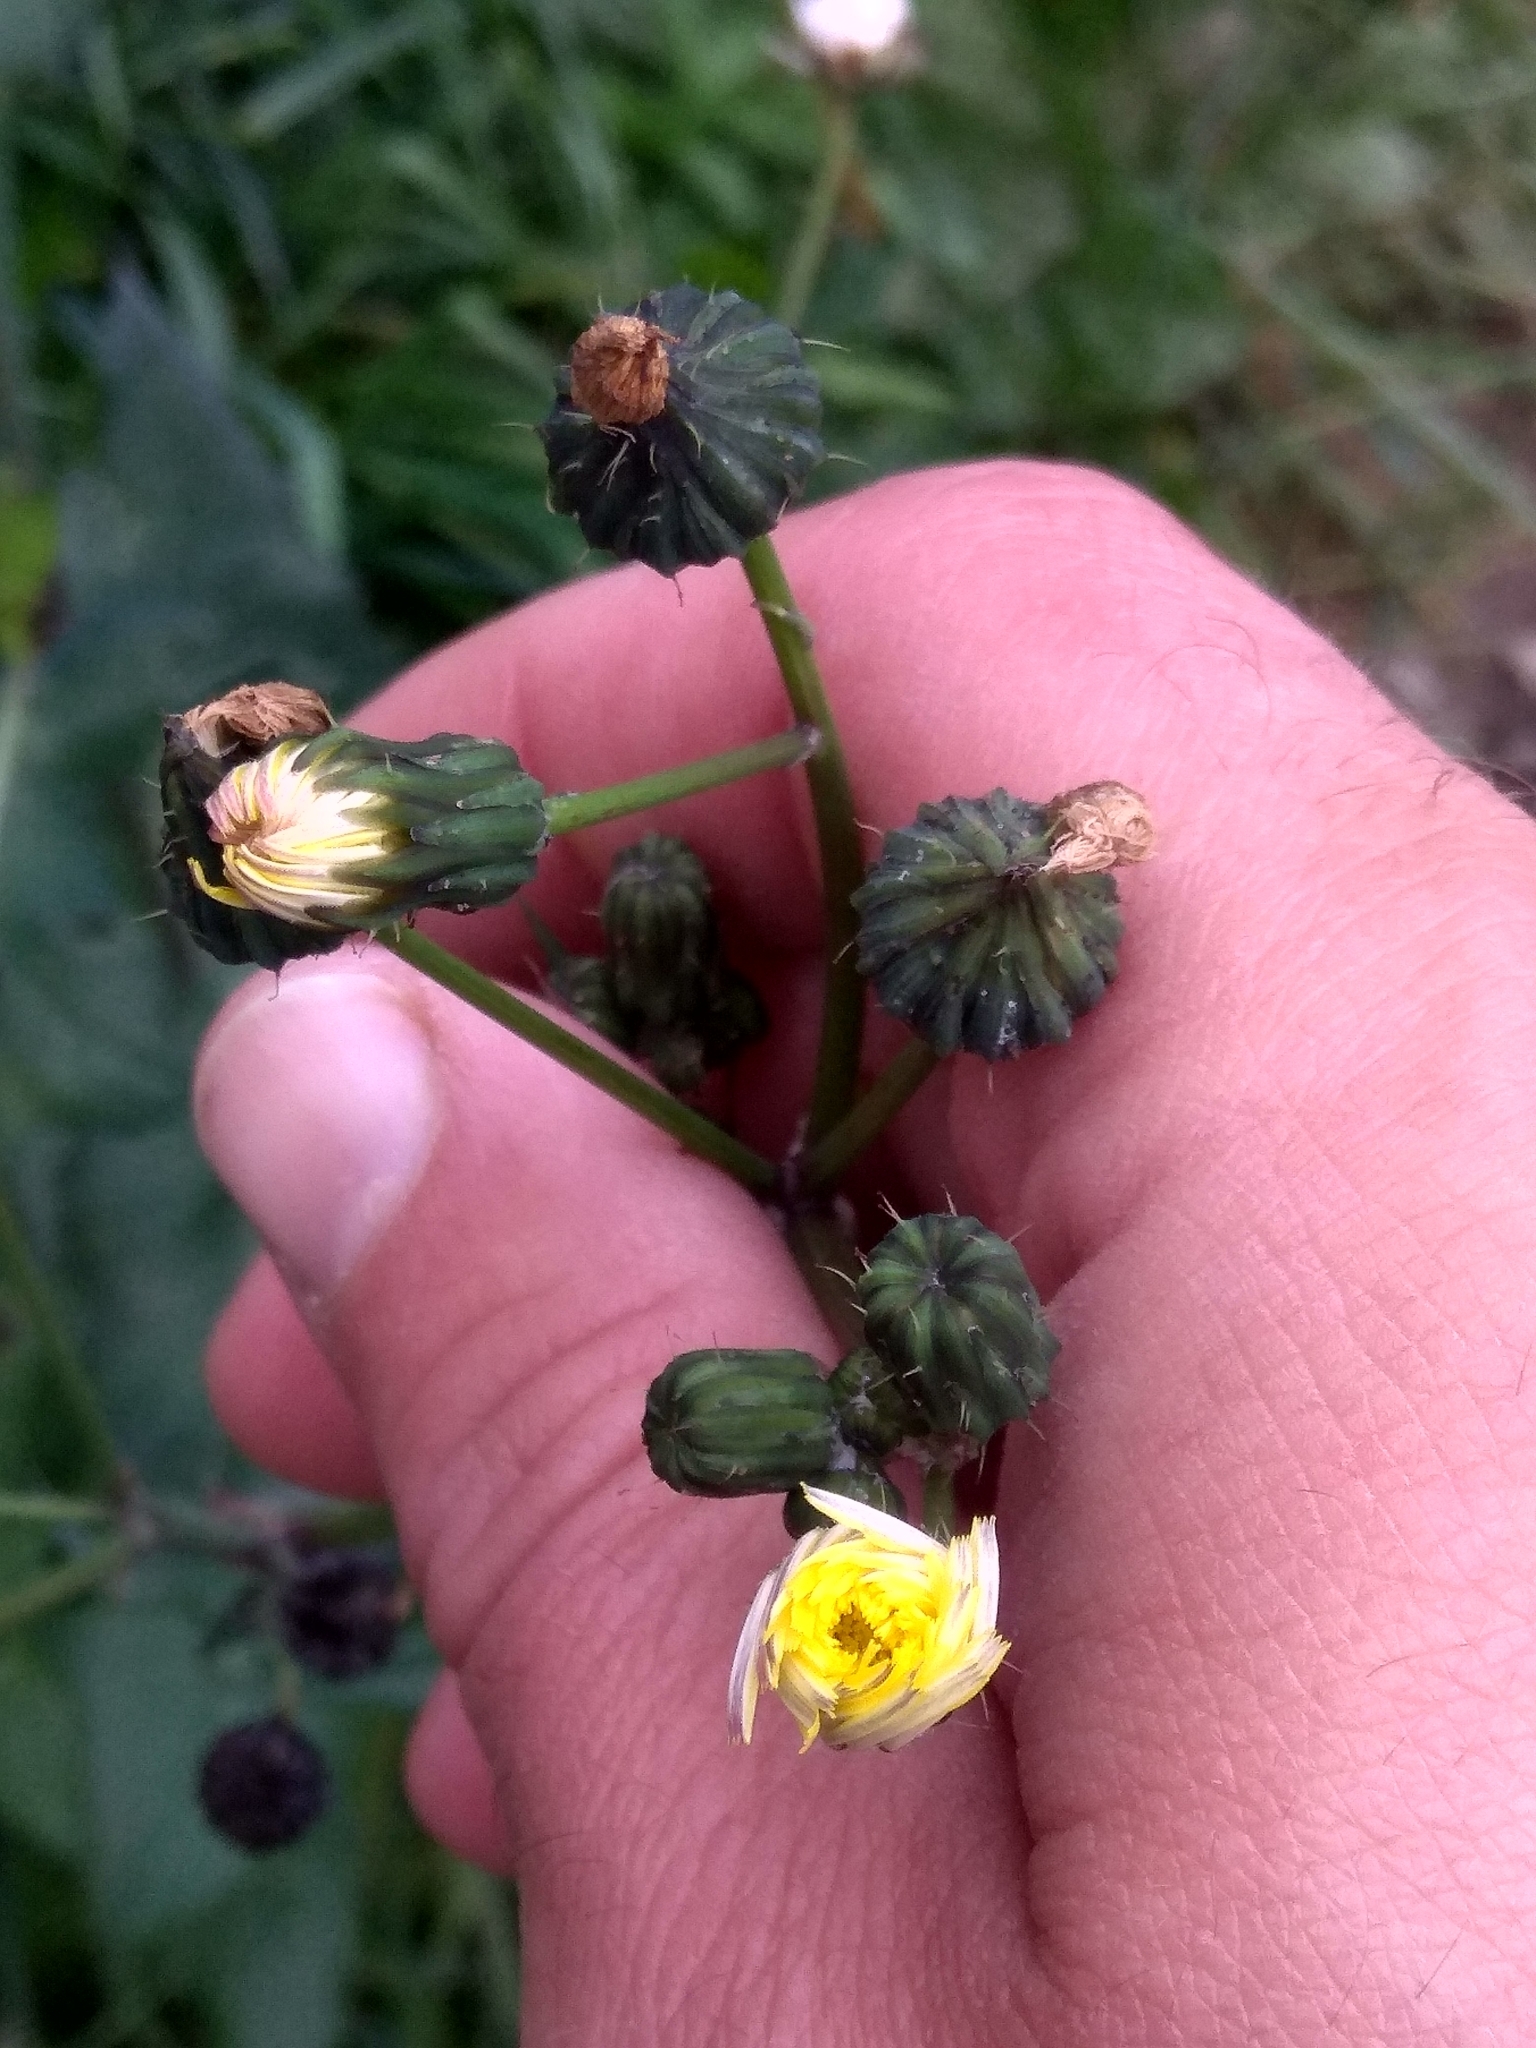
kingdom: Plantae
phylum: Tracheophyta
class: Magnoliopsida
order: Asterales
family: Asteraceae
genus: Sonchus
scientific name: Sonchus oleraceus
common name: Common sowthistle
